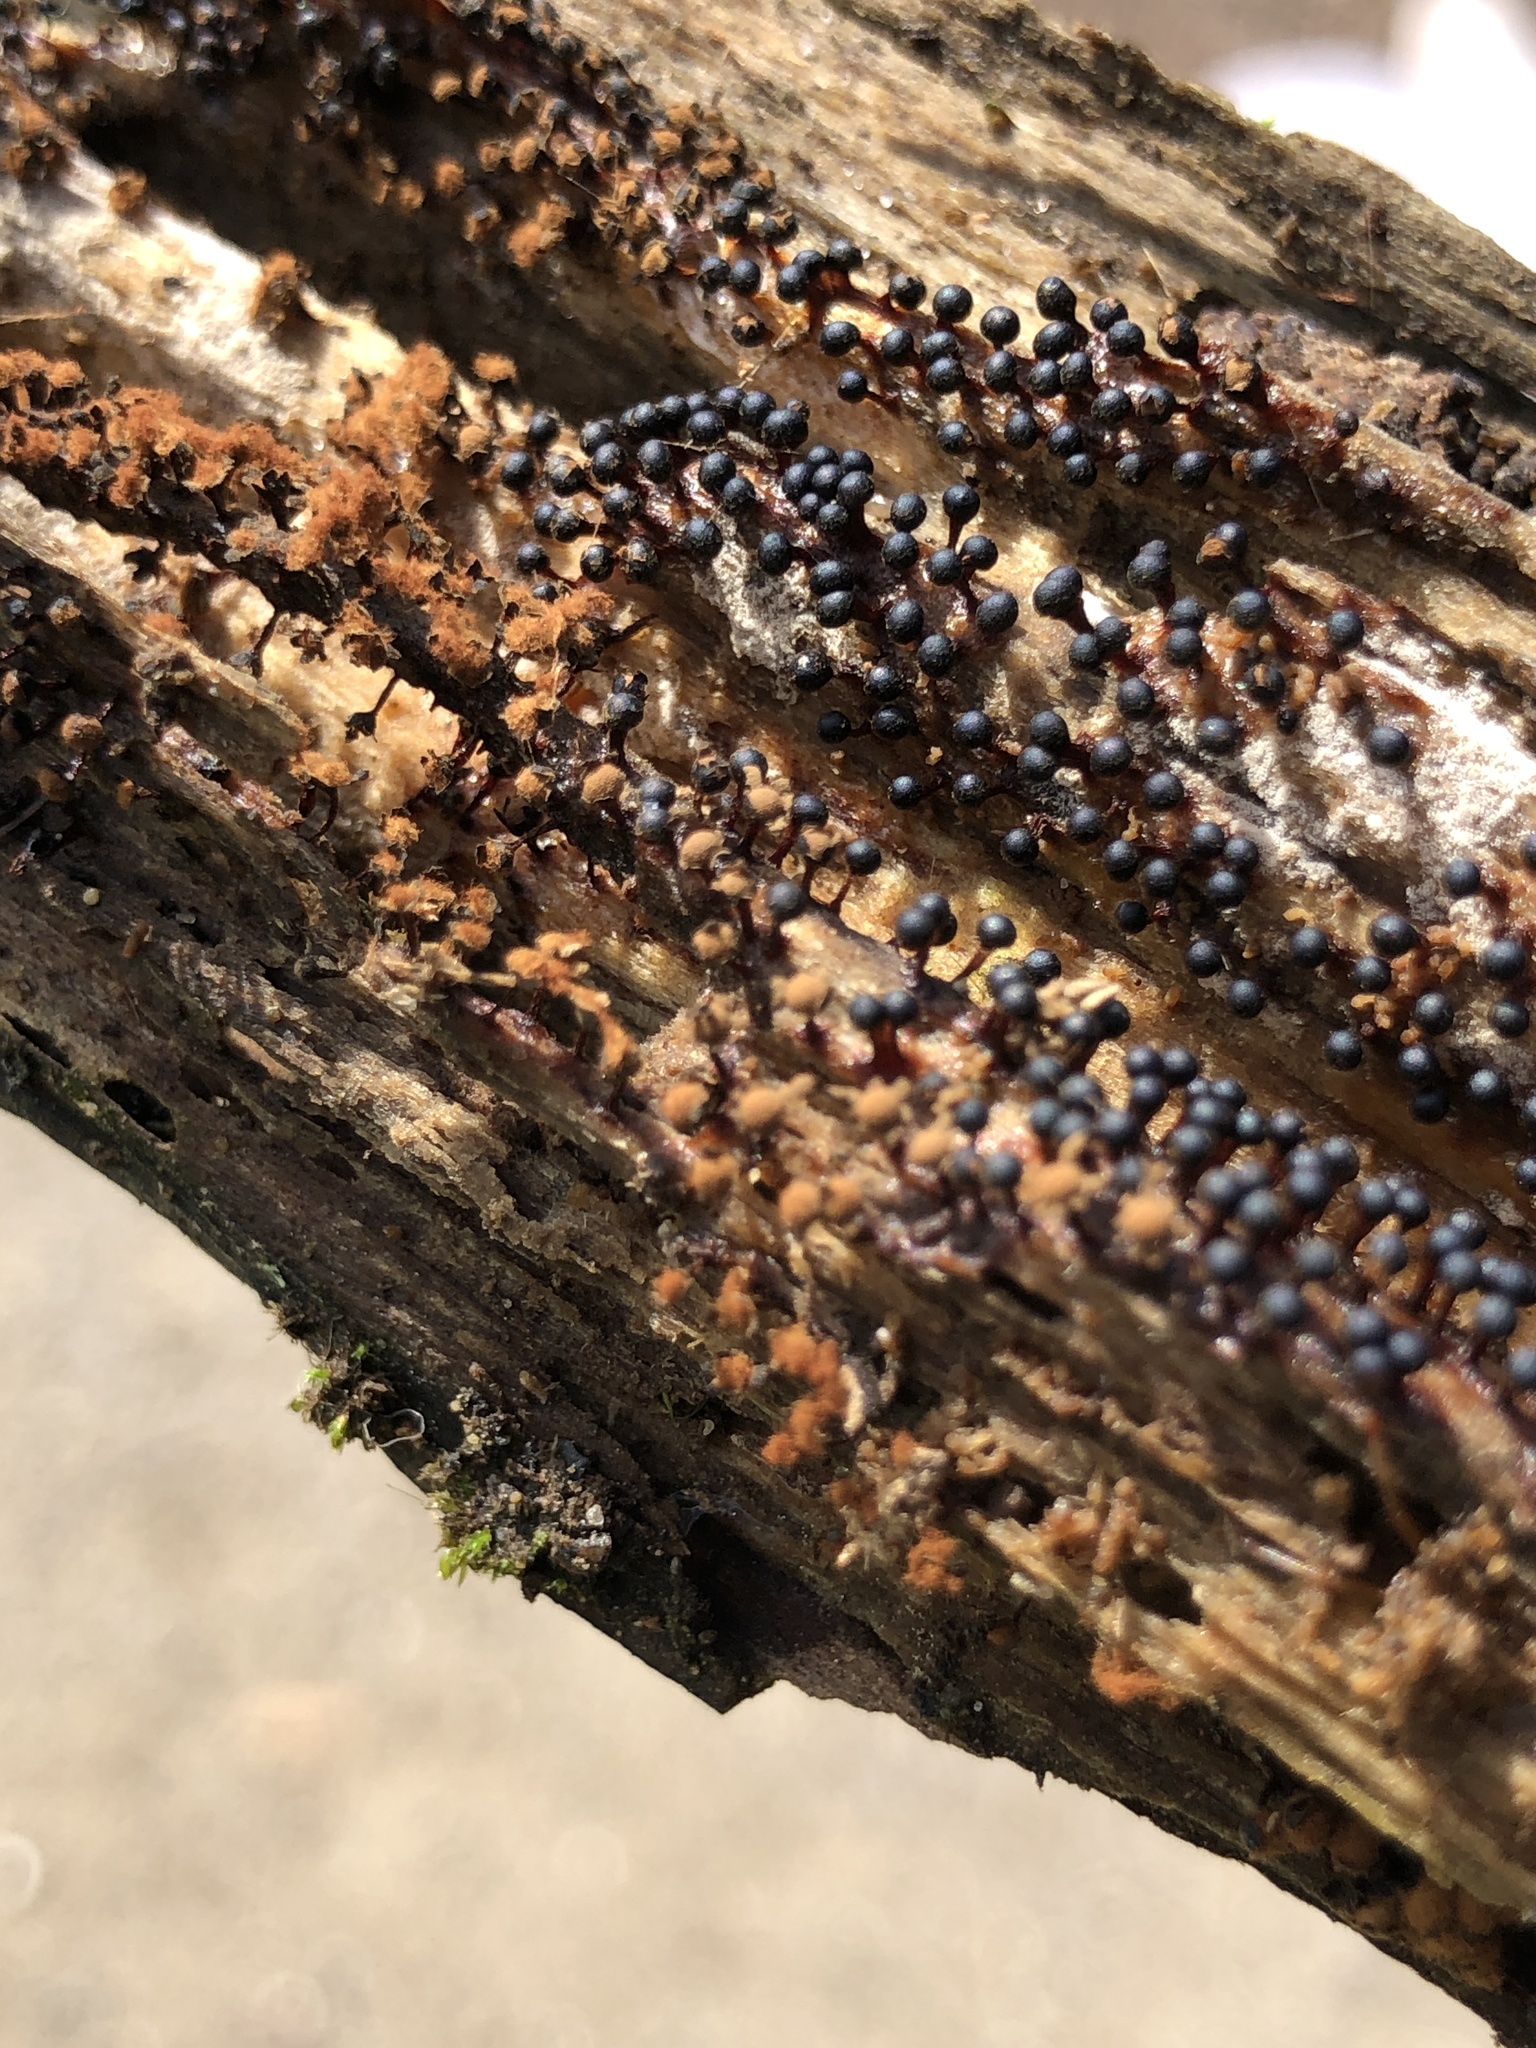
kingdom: Protozoa
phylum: Mycetozoa
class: Myxomycetes
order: Trichiales
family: Trichiaceae
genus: Metatrichia
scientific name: Metatrichia floriformis
